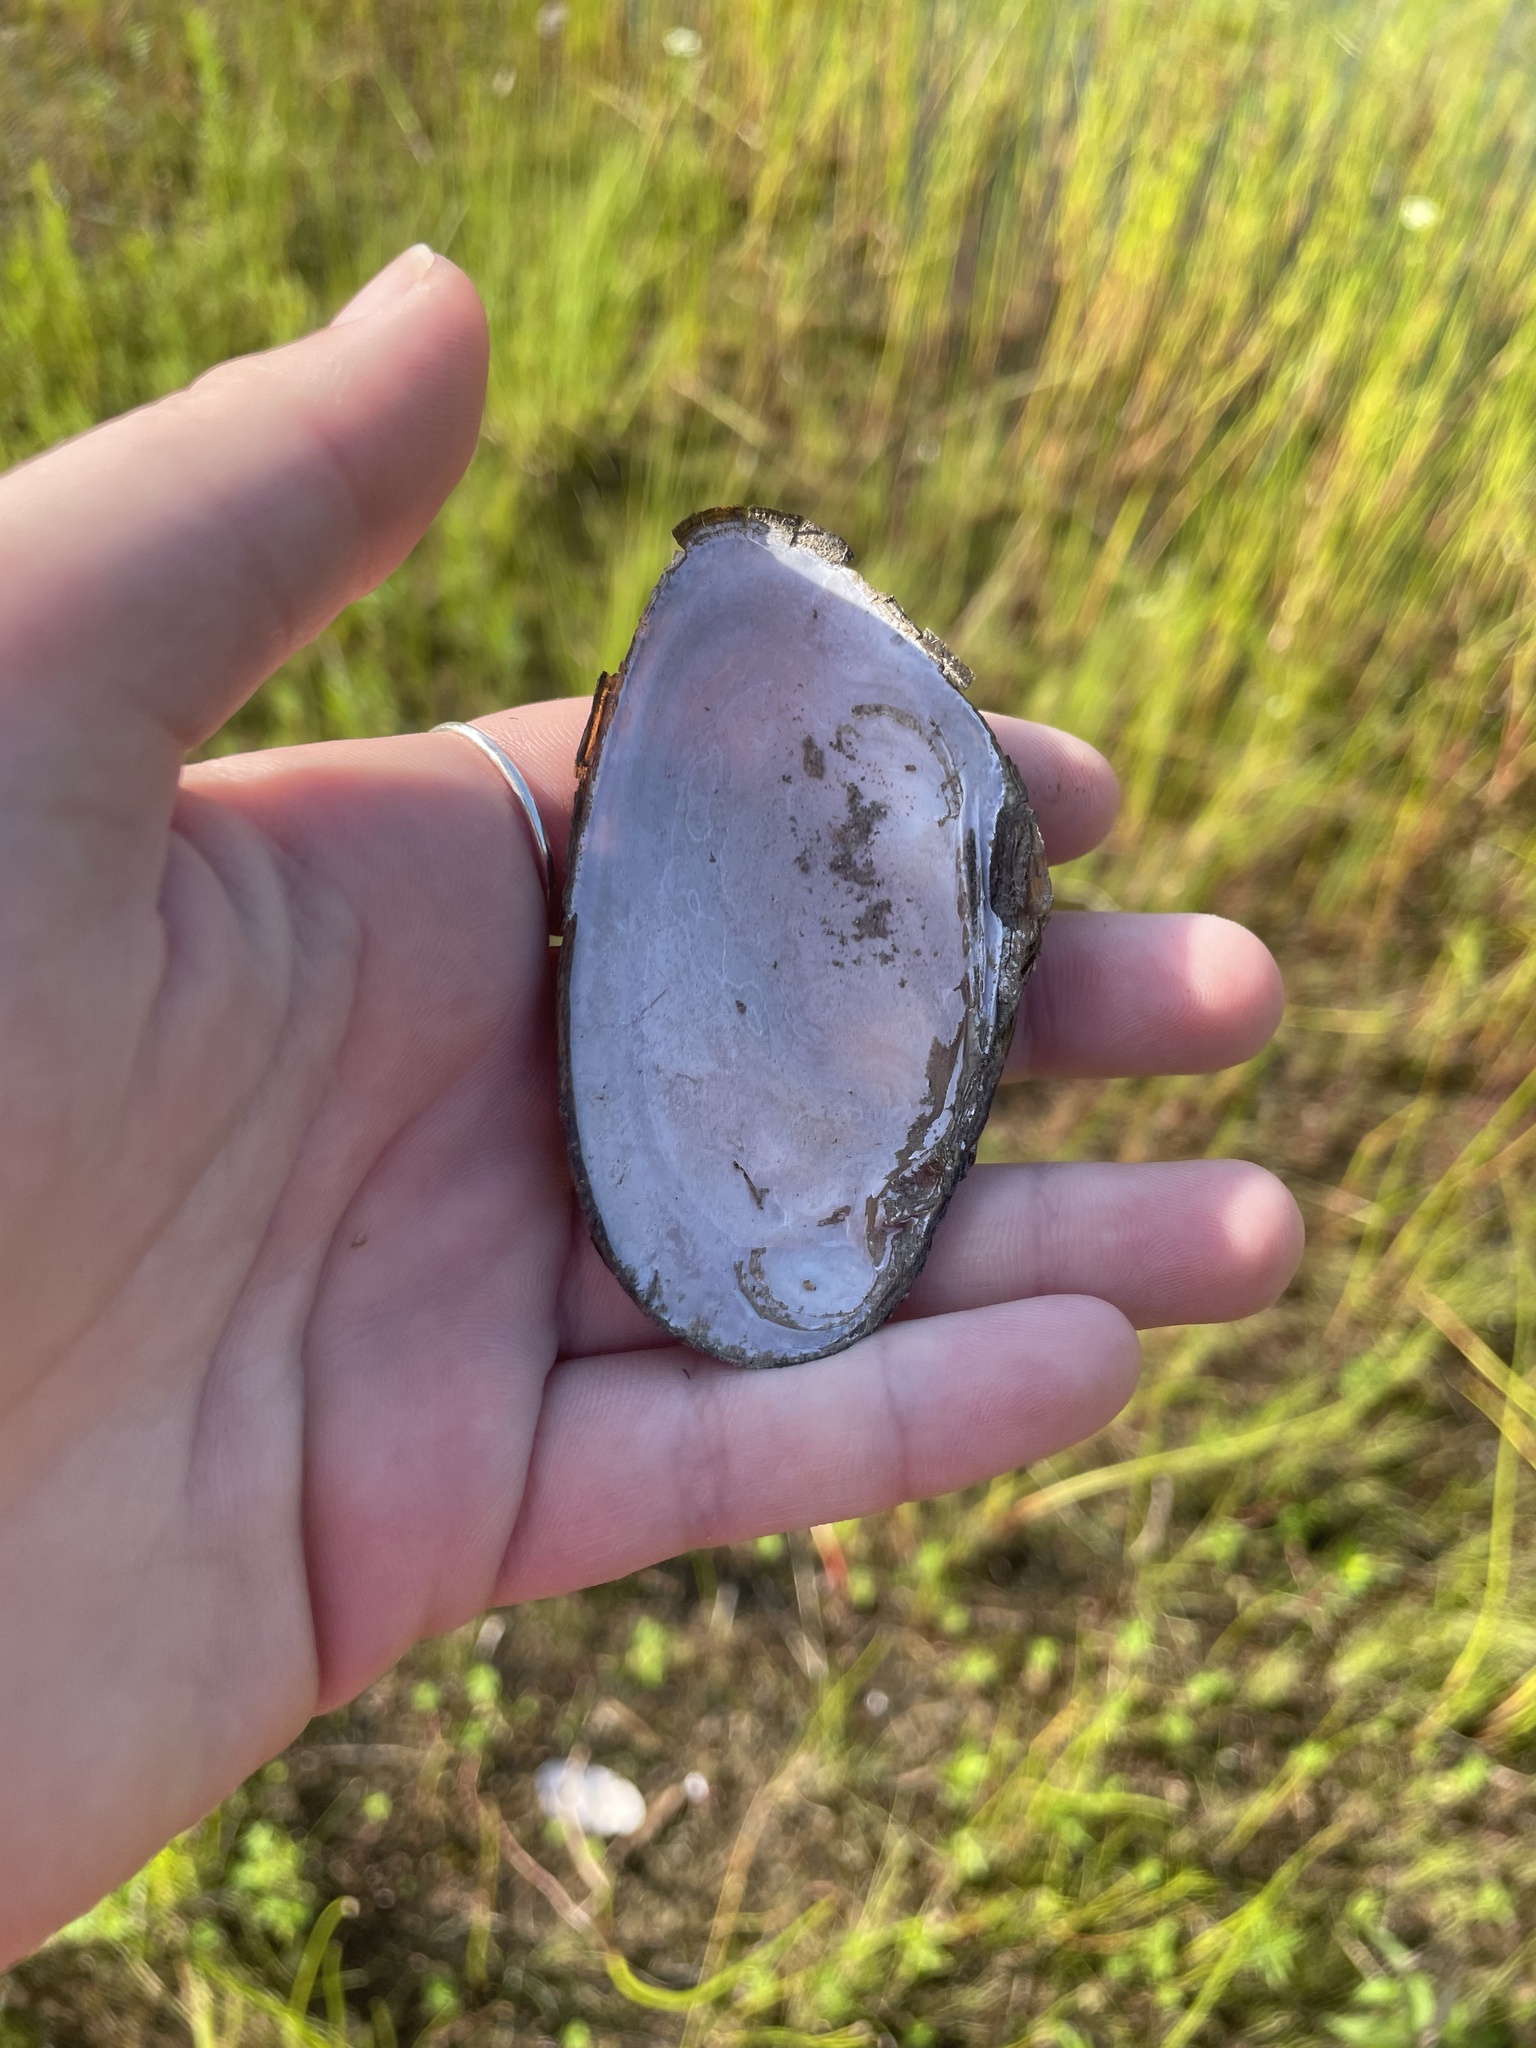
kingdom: Animalia
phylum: Mollusca
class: Bivalvia
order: Unionida
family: Unionidae
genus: Elliptio
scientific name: Elliptio complanata
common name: Eastern elliptio
